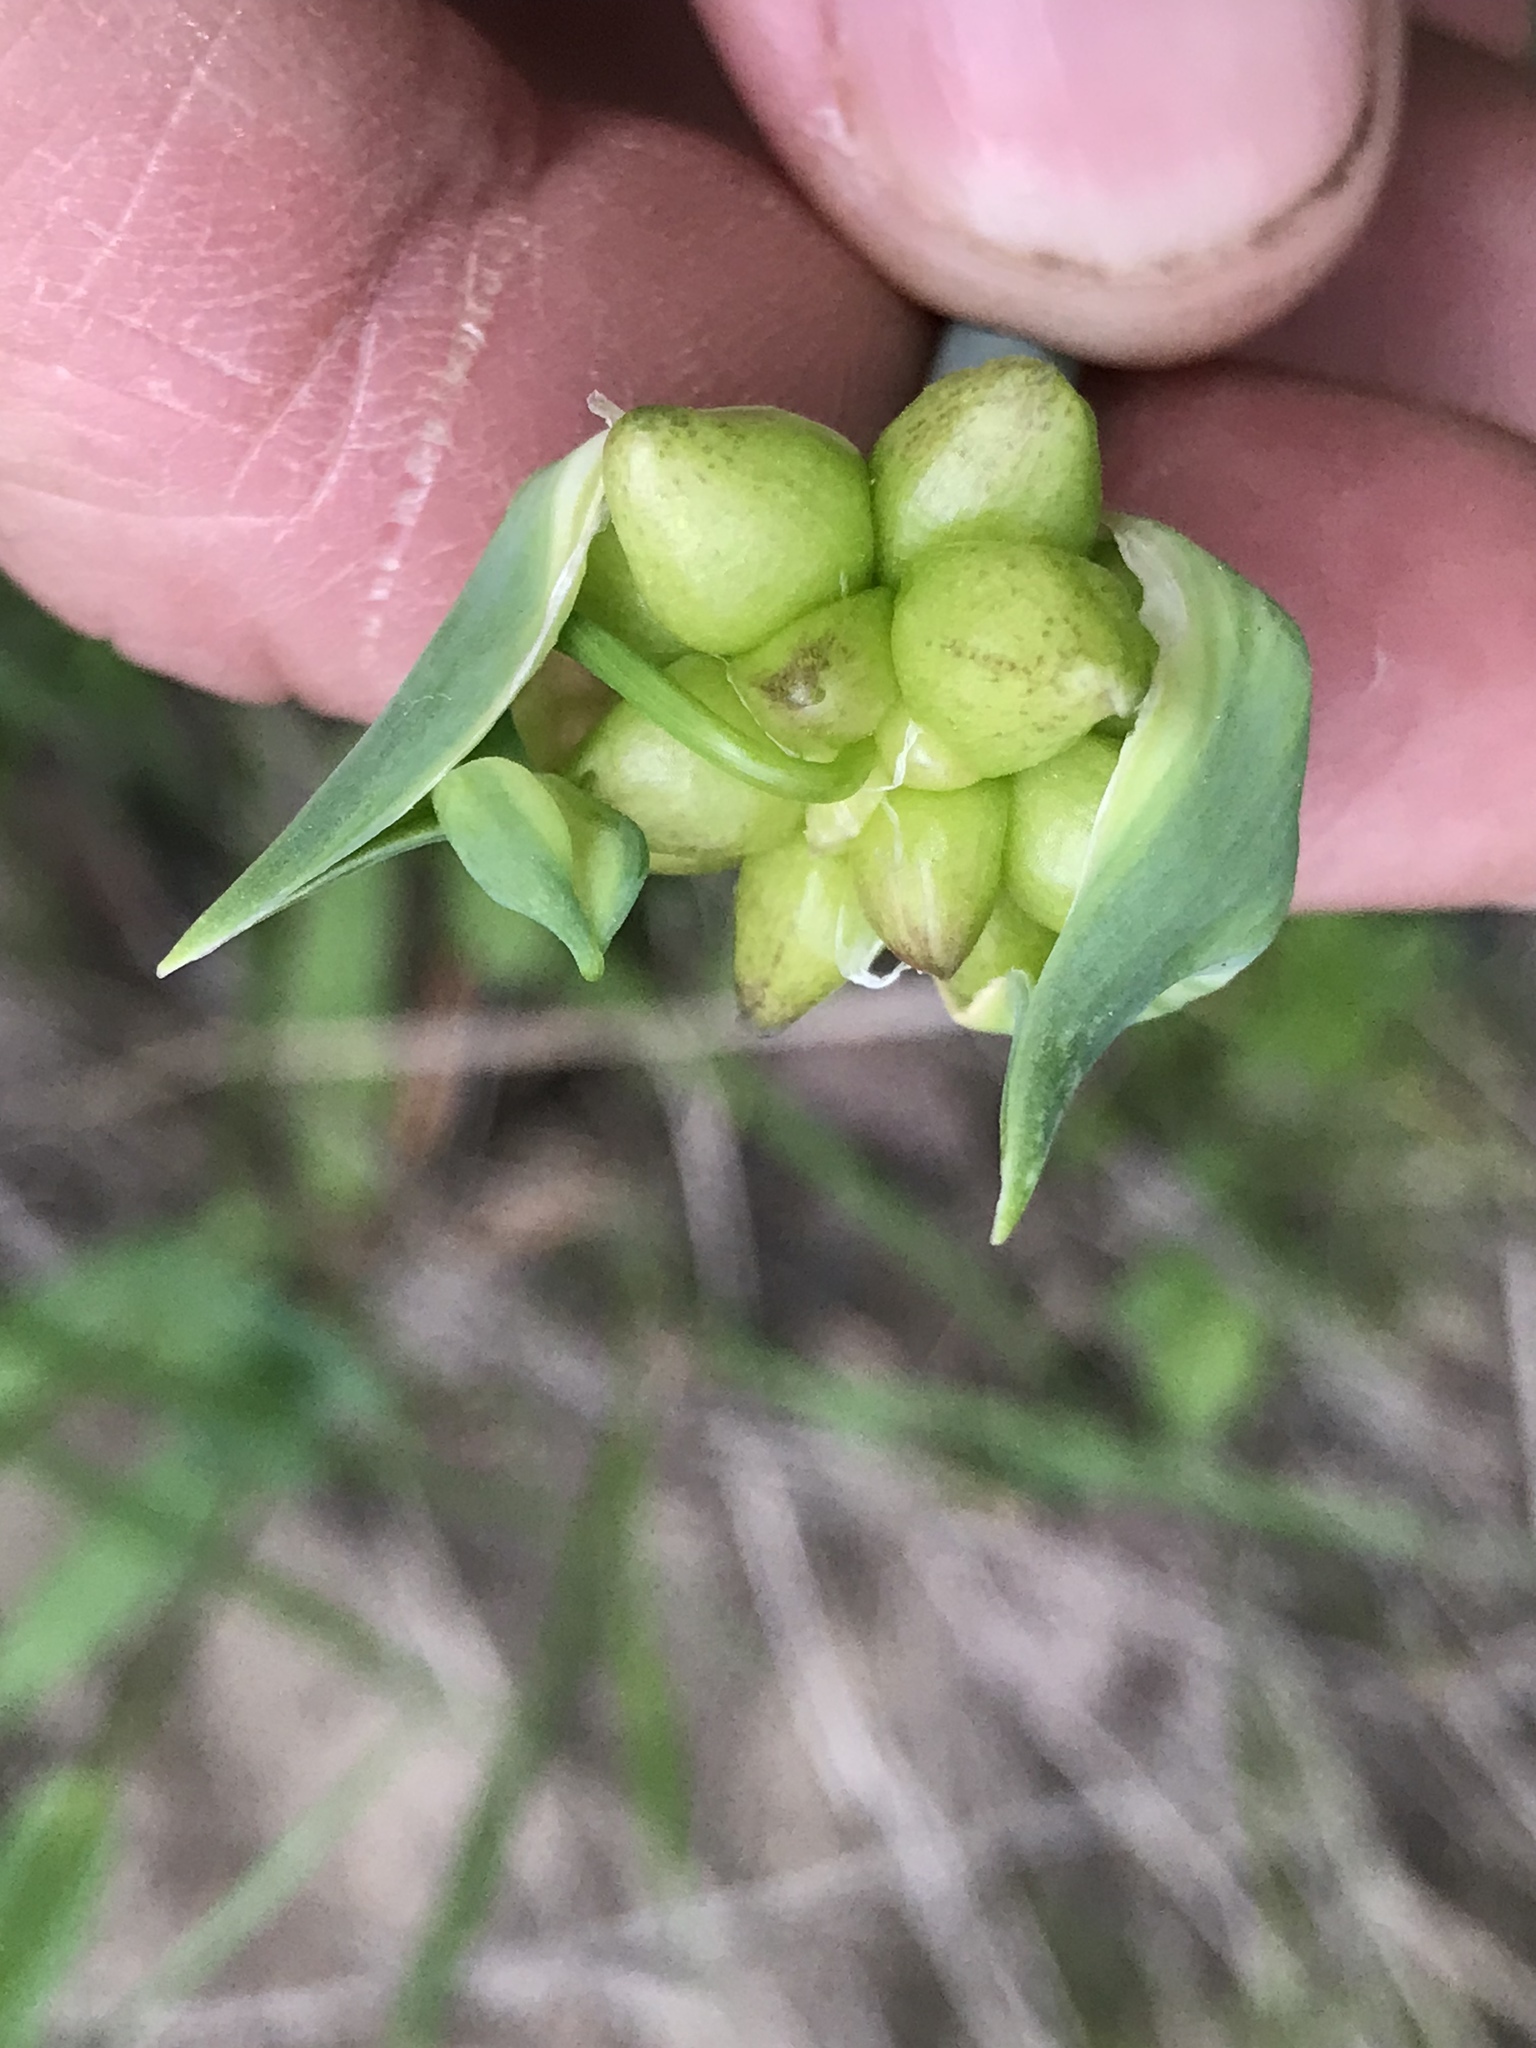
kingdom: Plantae
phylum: Tracheophyta
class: Liliopsida
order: Asparagales
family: Amaryllidaceae
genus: Allium
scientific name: Allium canadense
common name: Meadow garlic
